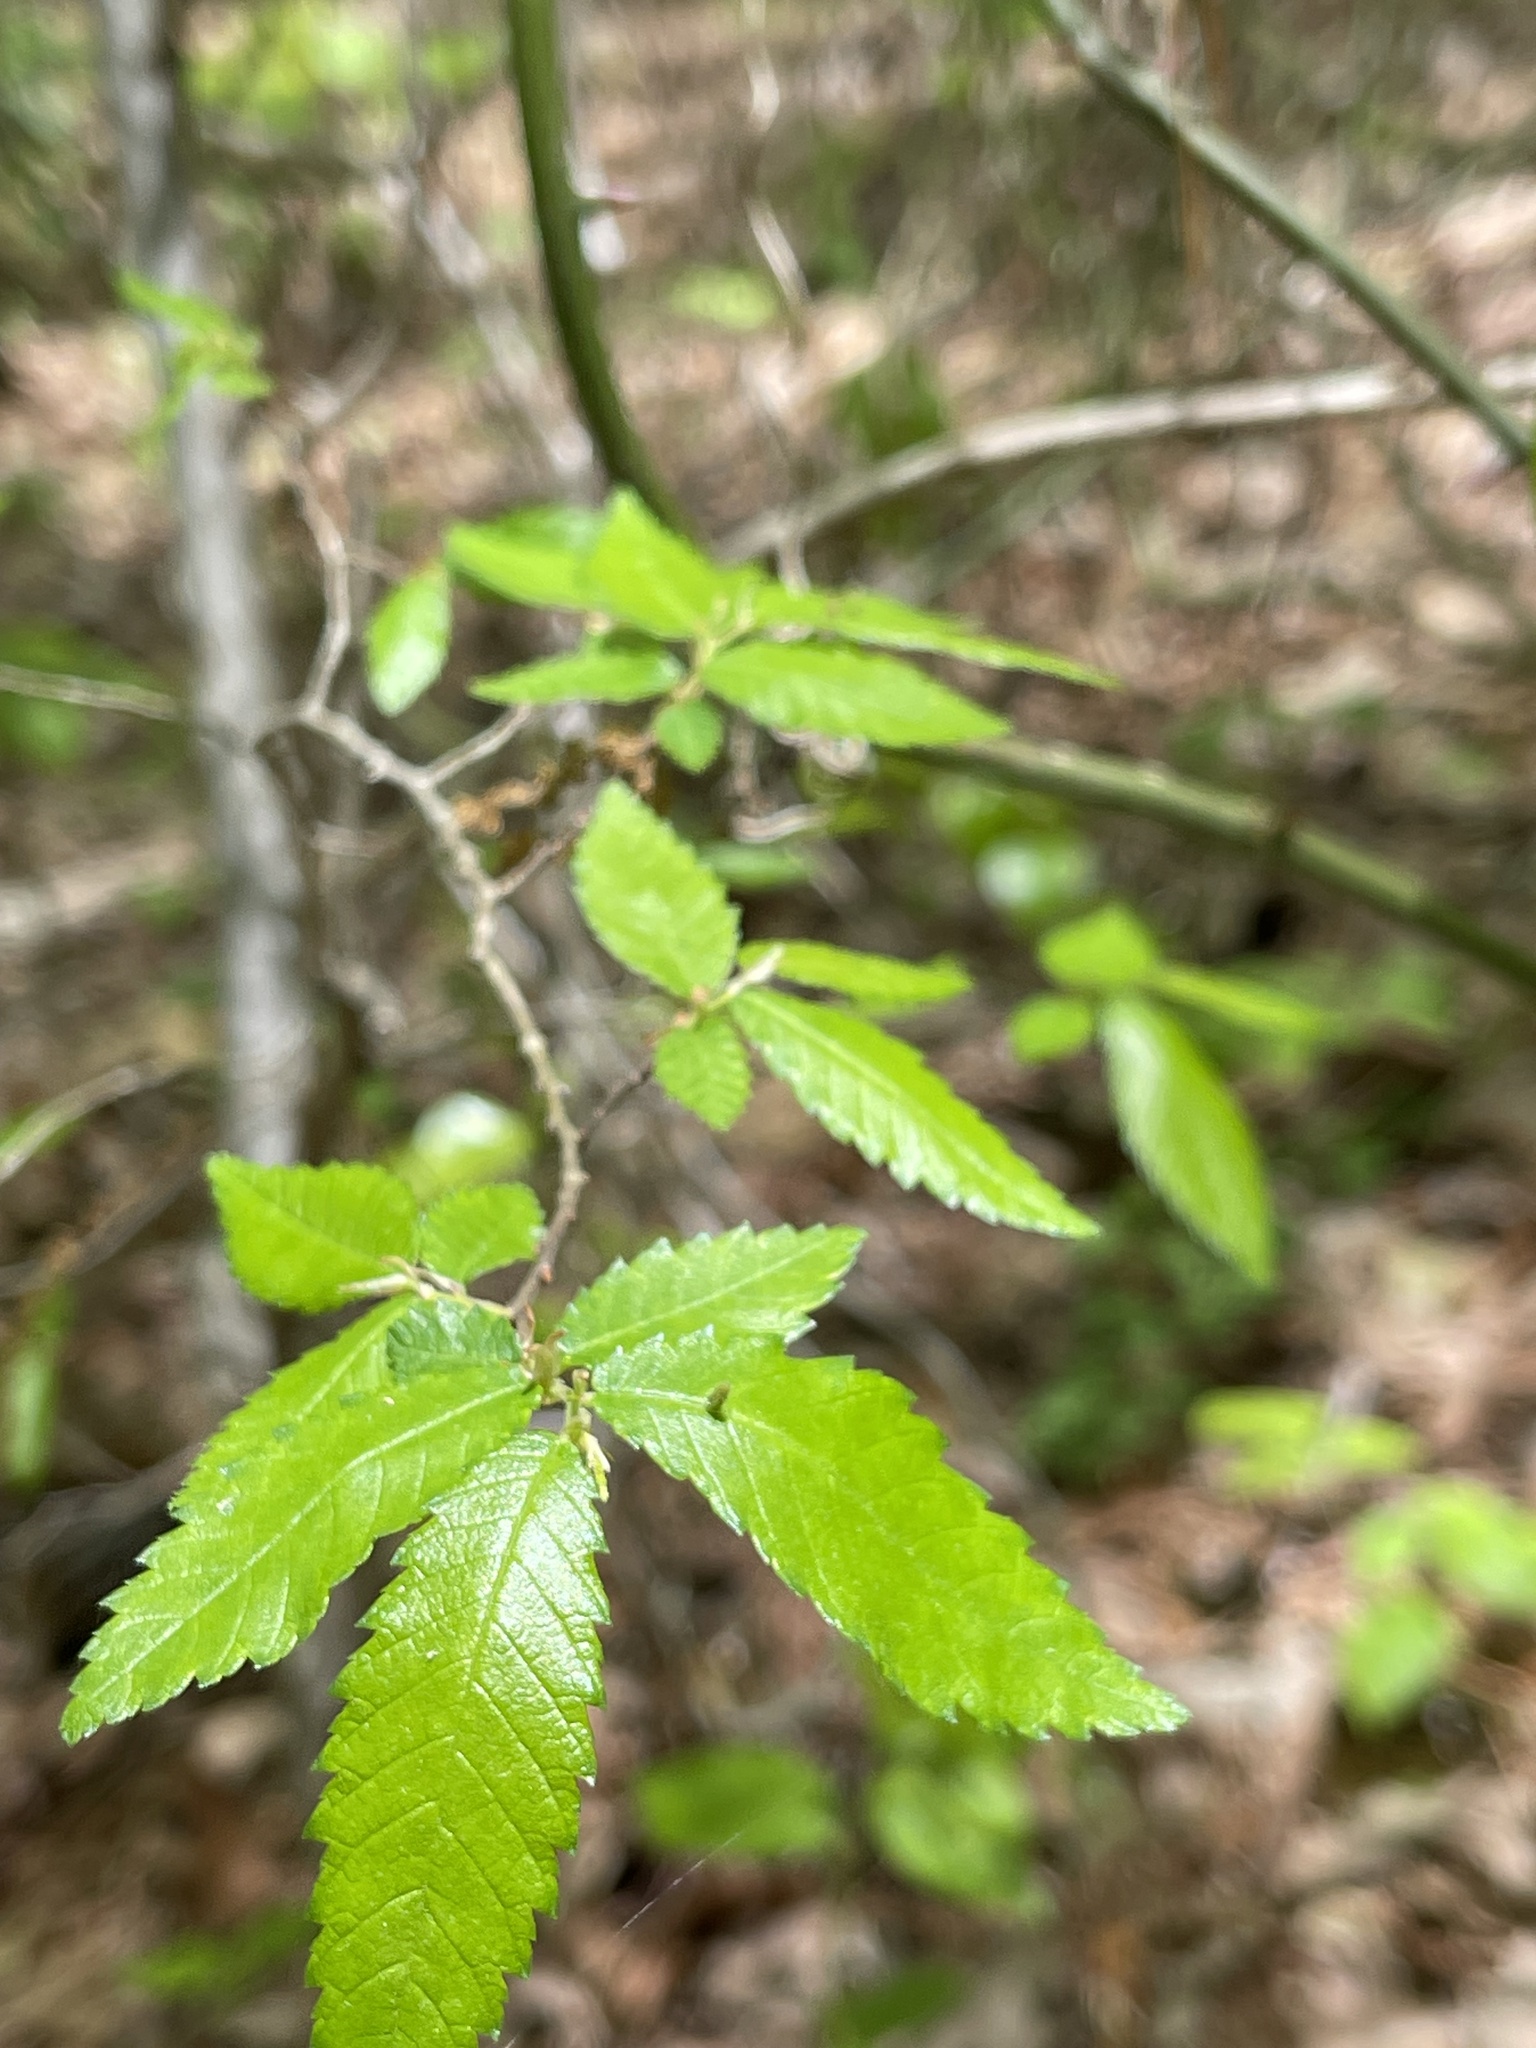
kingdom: Plantae
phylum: Tracheophyta
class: Magnoliopsida
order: Rosales
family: Ulmaceae
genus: Ulmus
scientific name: Ulmus alata
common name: Winged elm
